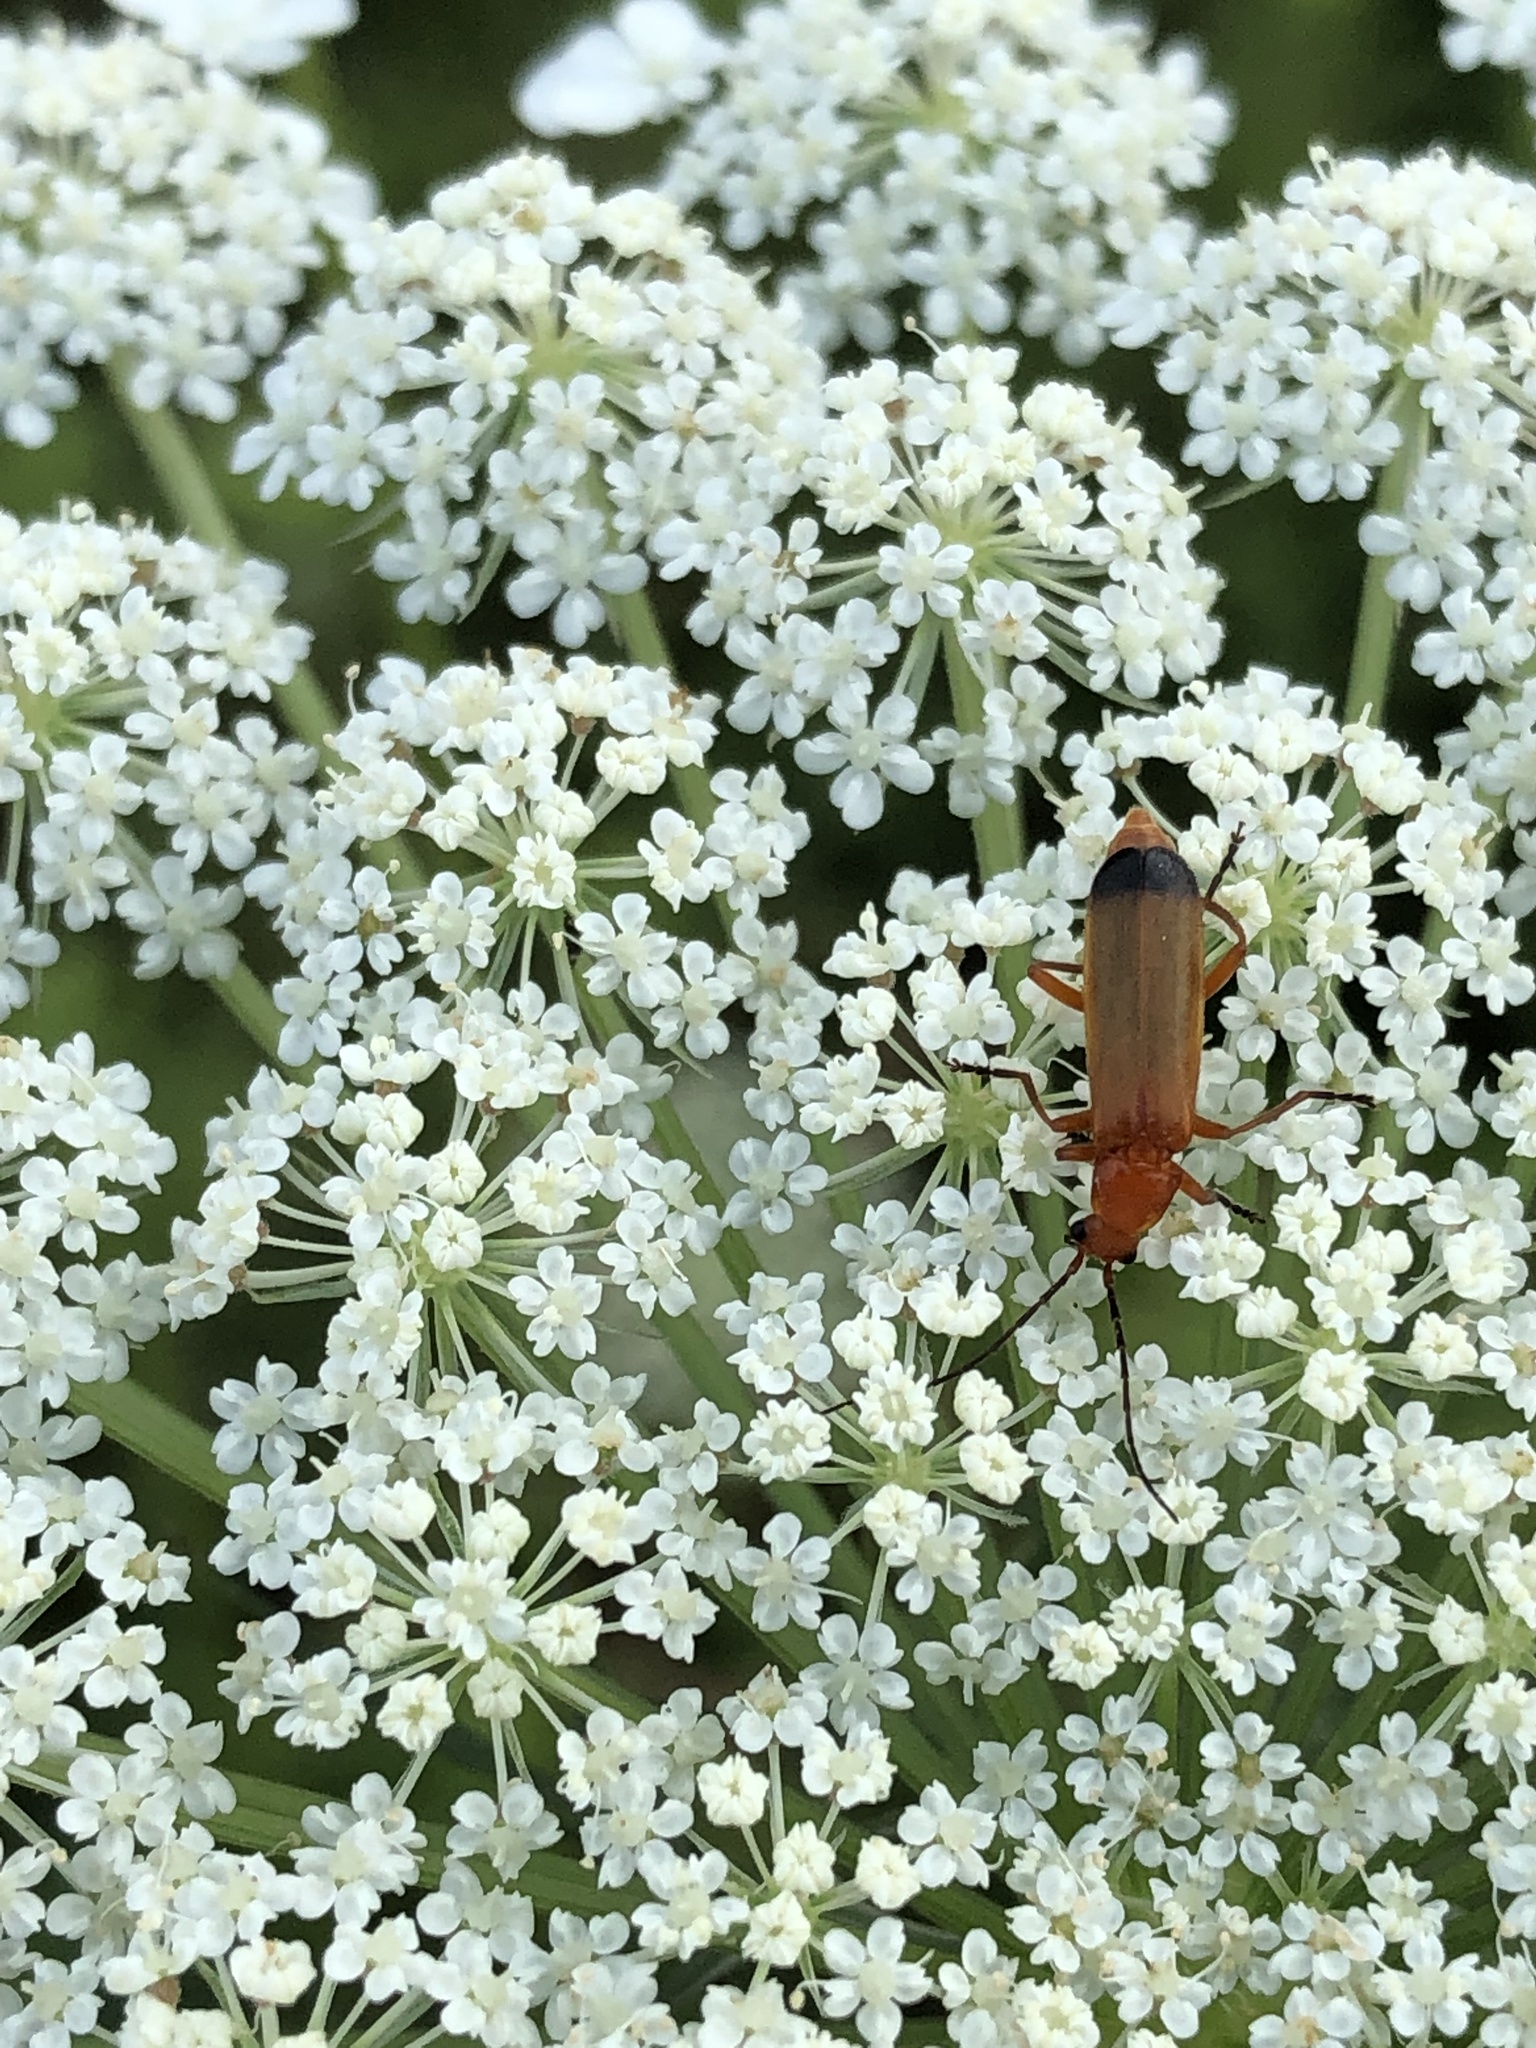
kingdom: Animalia
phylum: Arthropoda
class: Insecta
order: Coleoptera
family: Cantharidae
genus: Rhagonycha
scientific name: Rhagonycha fulva
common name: Common red soldier beetle
